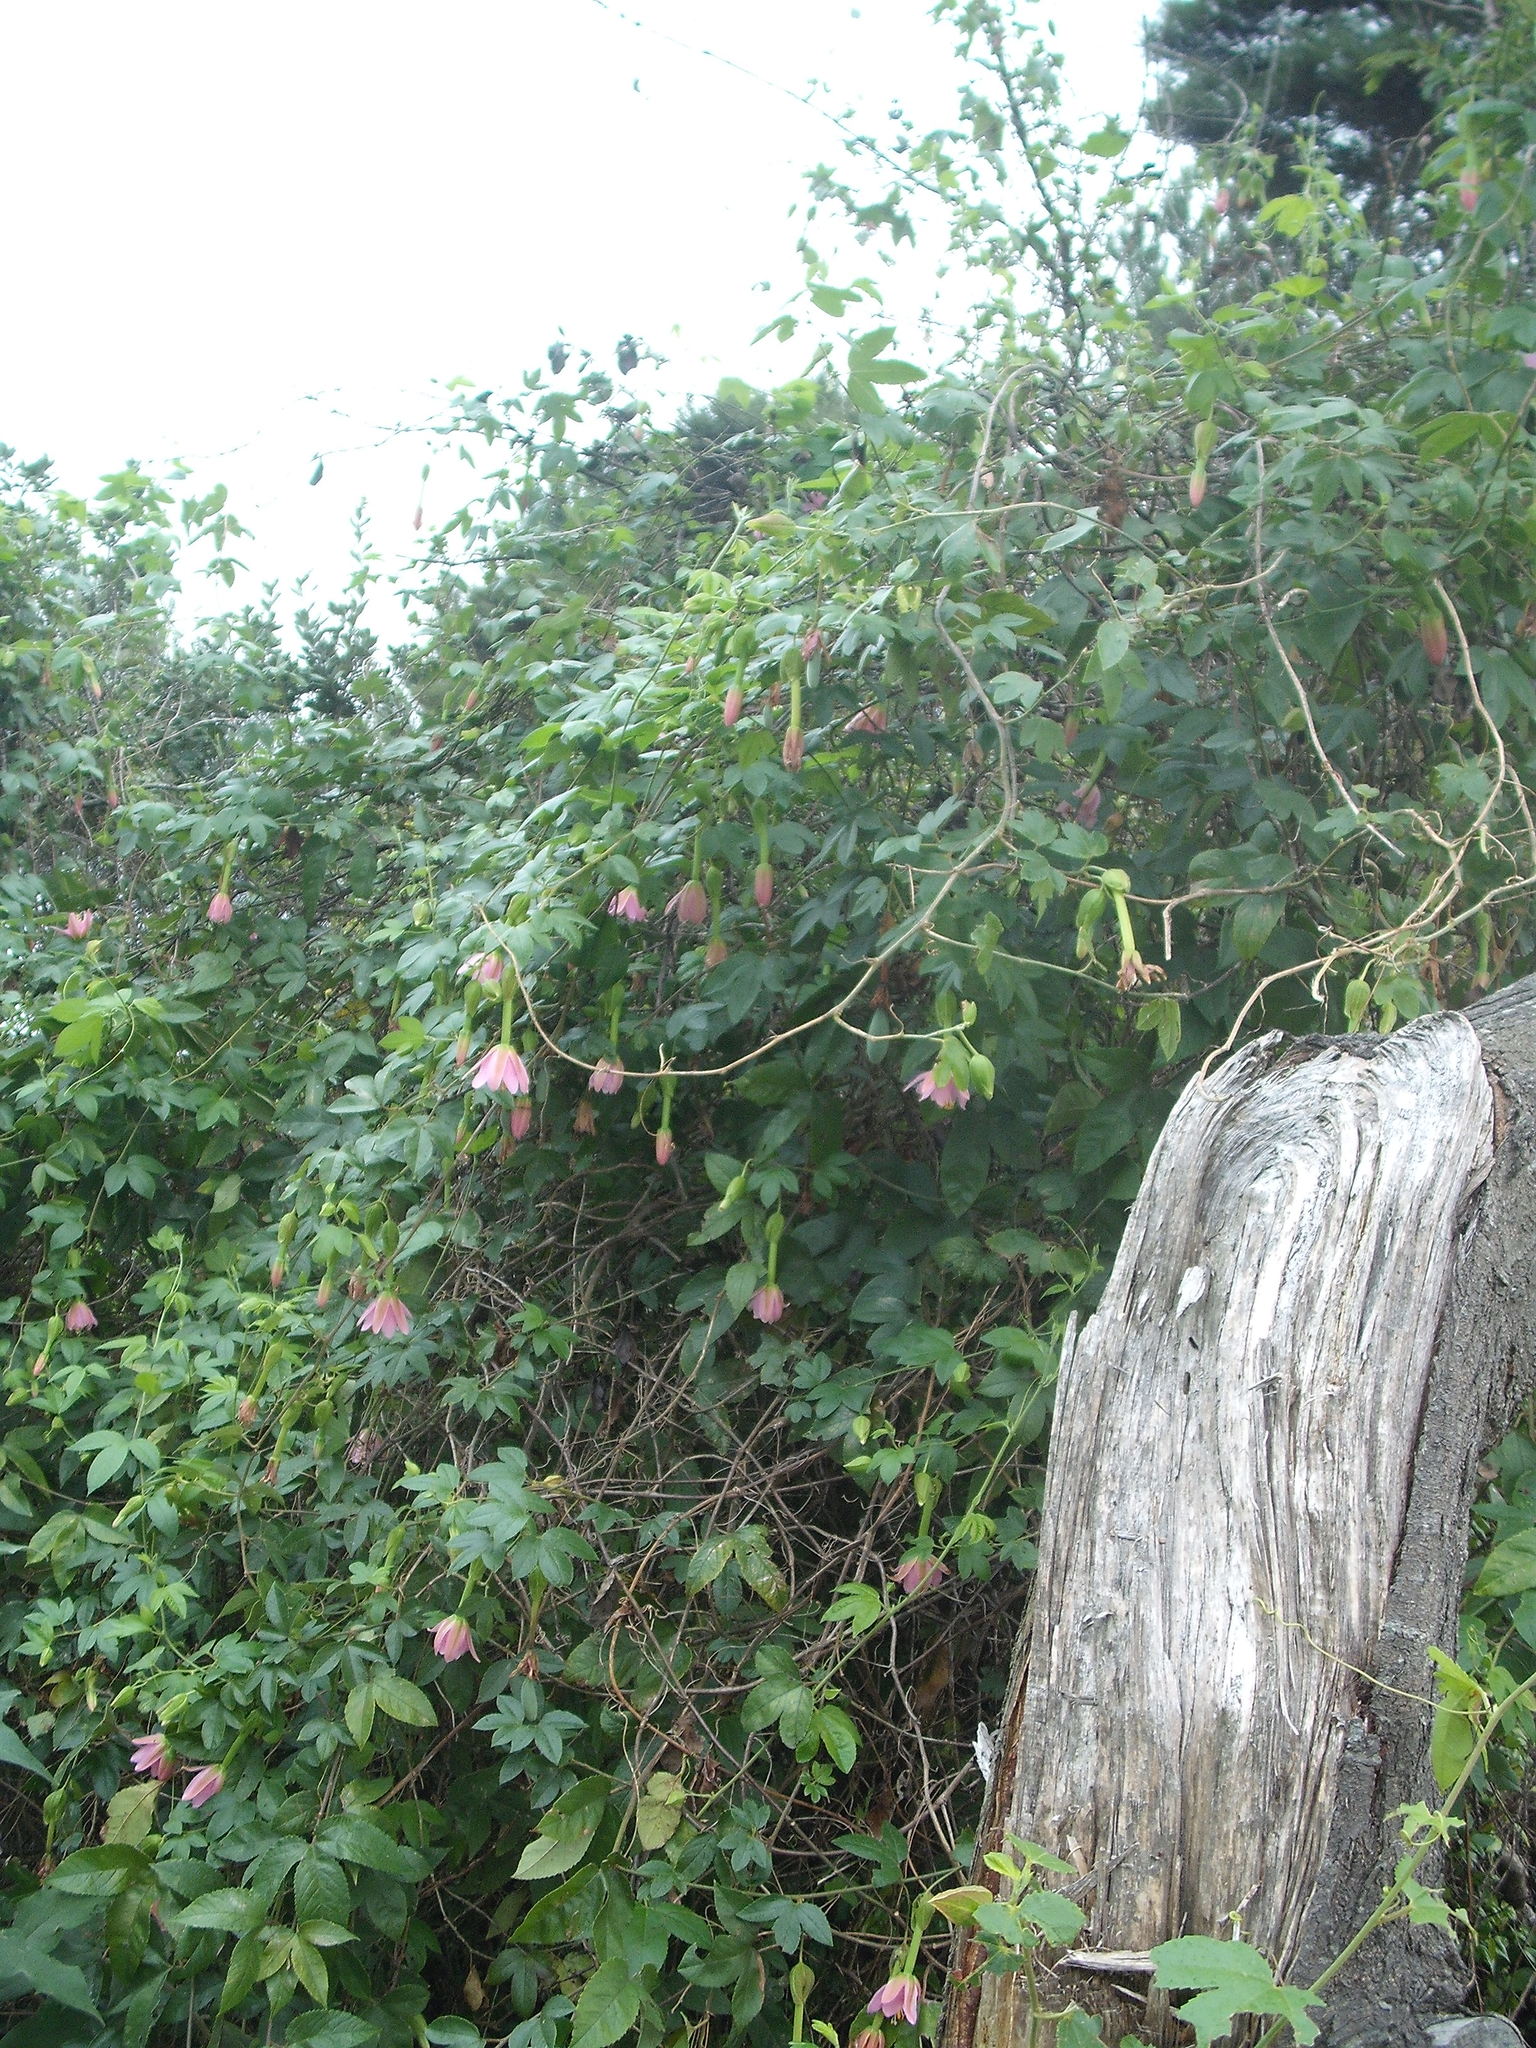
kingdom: Plantae
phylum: Tracheophyta
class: Magnoliopsida
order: Malpighiales
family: Passifloraceae
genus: Passiflora
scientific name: Passiflora tarminiana
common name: Banana poka
